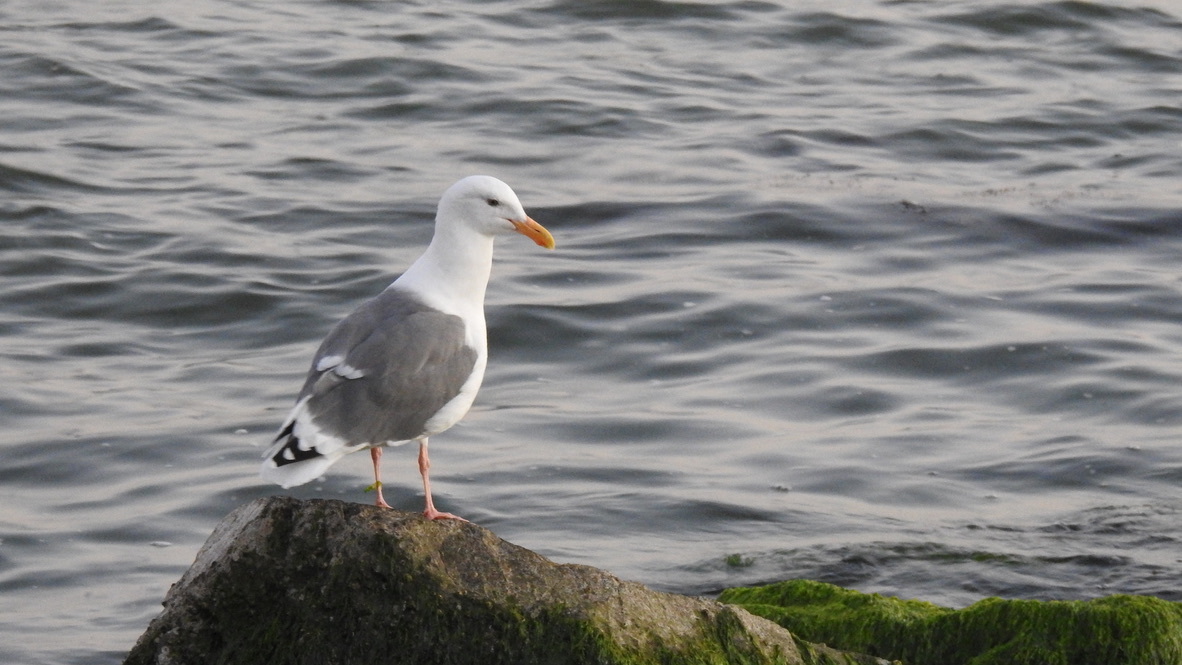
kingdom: Animalia
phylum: Chordata
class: Aves
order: Charadriiformes
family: Laridae
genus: Larus
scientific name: Larus occidentalis
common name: Western gull
